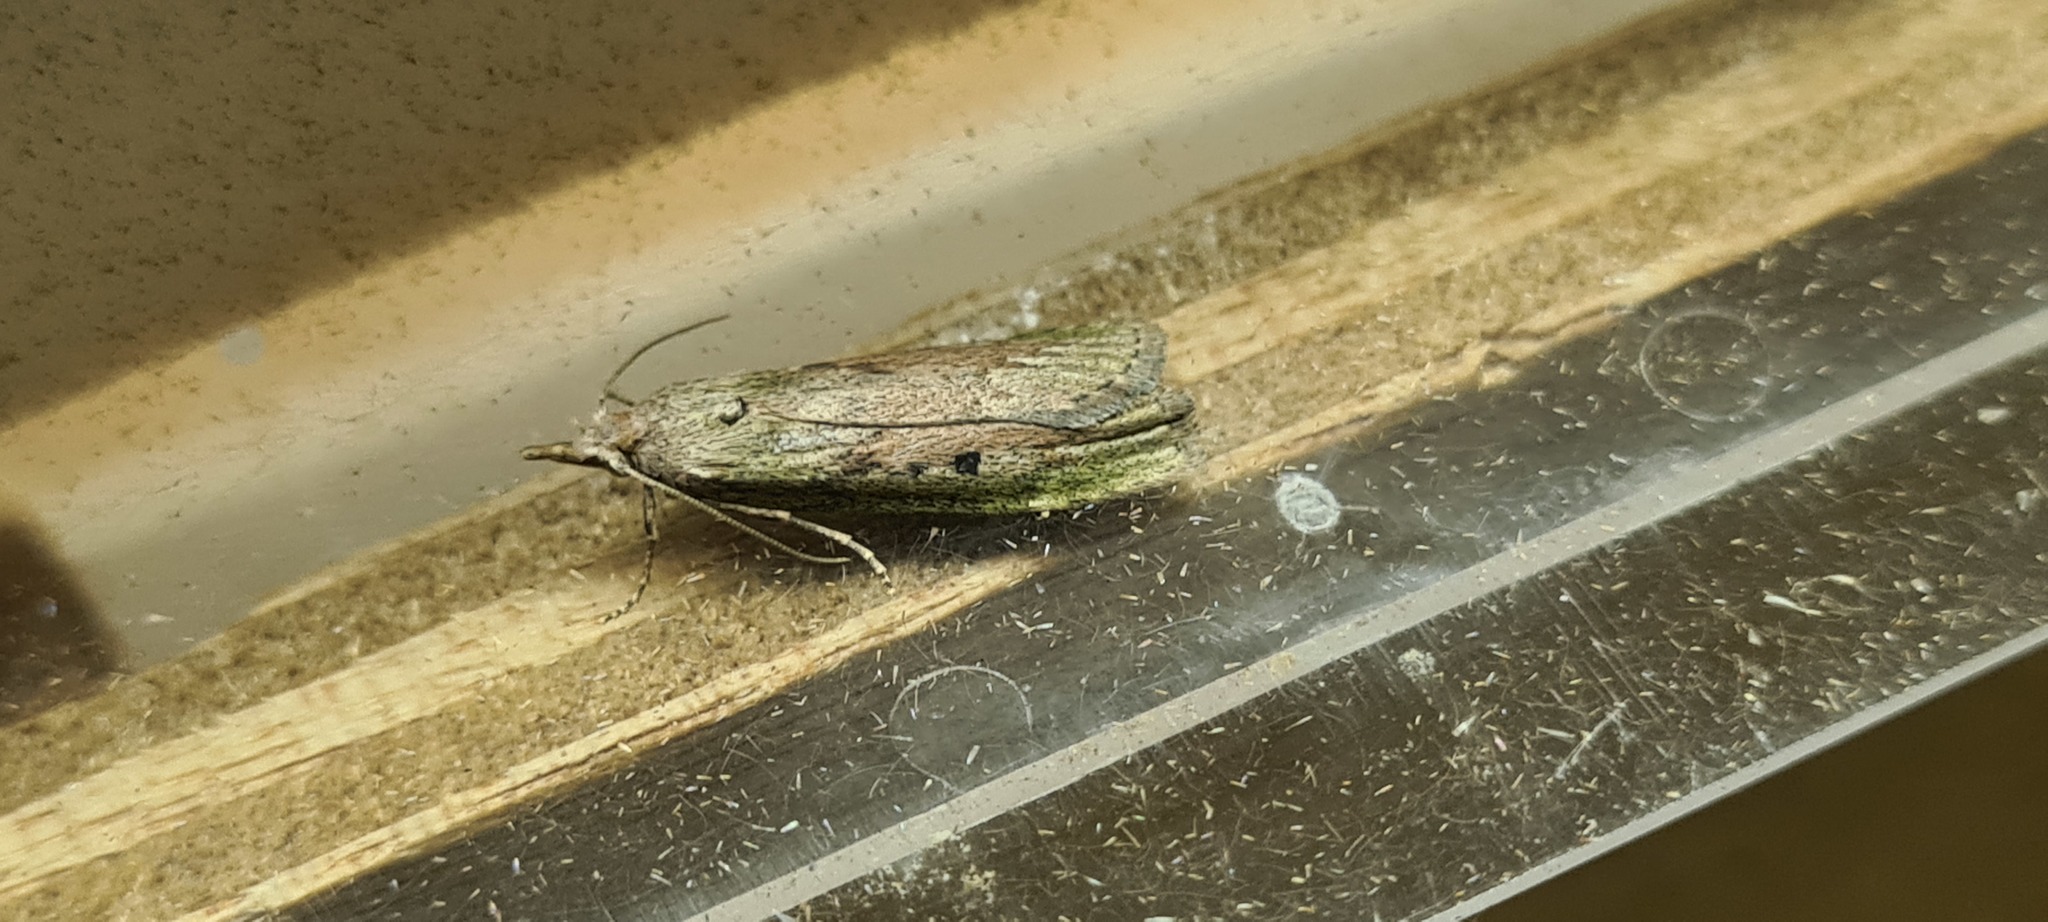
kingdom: Animalia
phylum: Arthropoda
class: Insecta
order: Lepidoptera
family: Pyralidae
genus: Aphomia
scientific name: Aphomia sociella
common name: Bee moth
